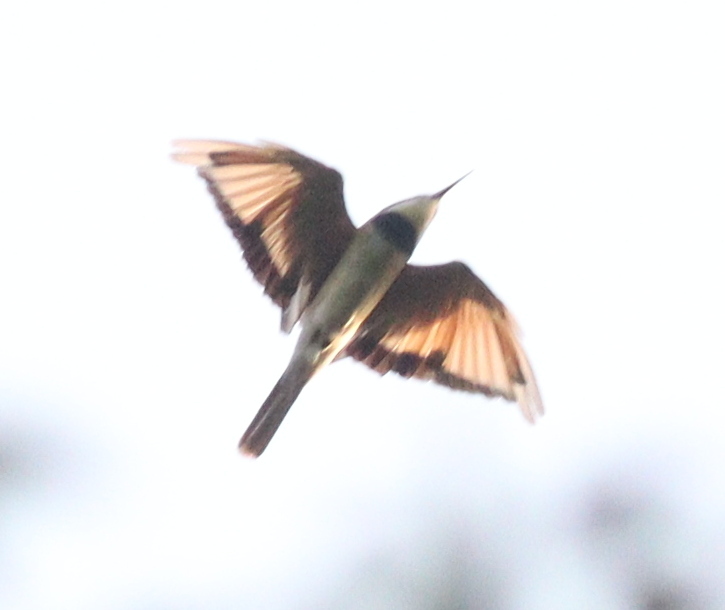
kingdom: Animalia
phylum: Chordata
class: Aves
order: Coraciiformes
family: Meropidae
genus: Merops
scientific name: Merops albicollis
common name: White-throated bee-eater
